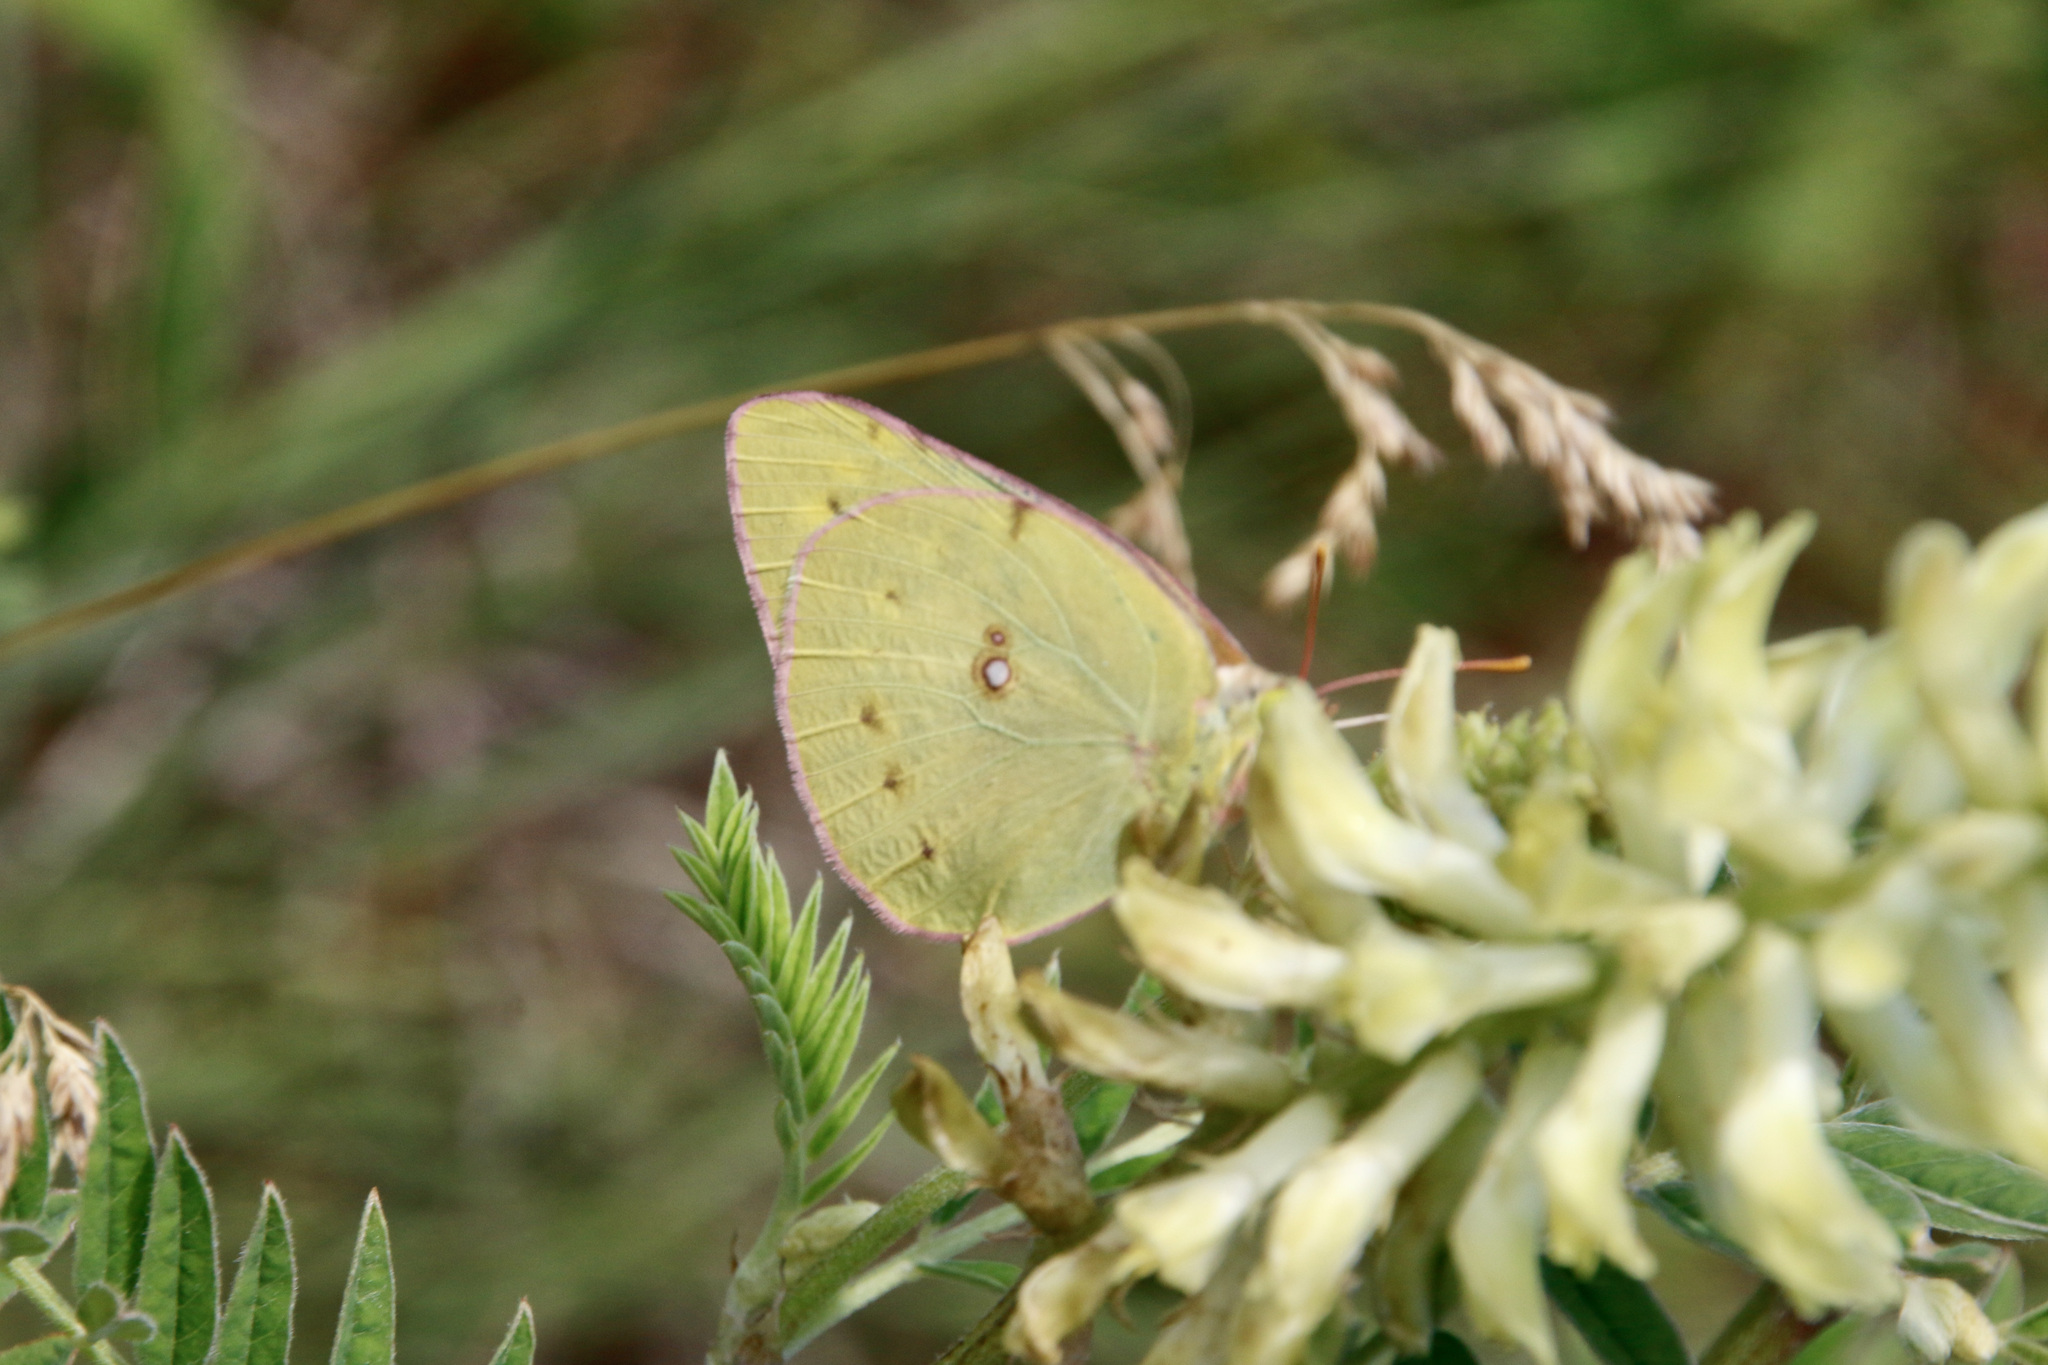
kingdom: Animalia
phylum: Arthropoda
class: Insecta
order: Lepidoptera
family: Pieridae
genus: Colias
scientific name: Colias eurytheme
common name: Alfalfa butterfly
